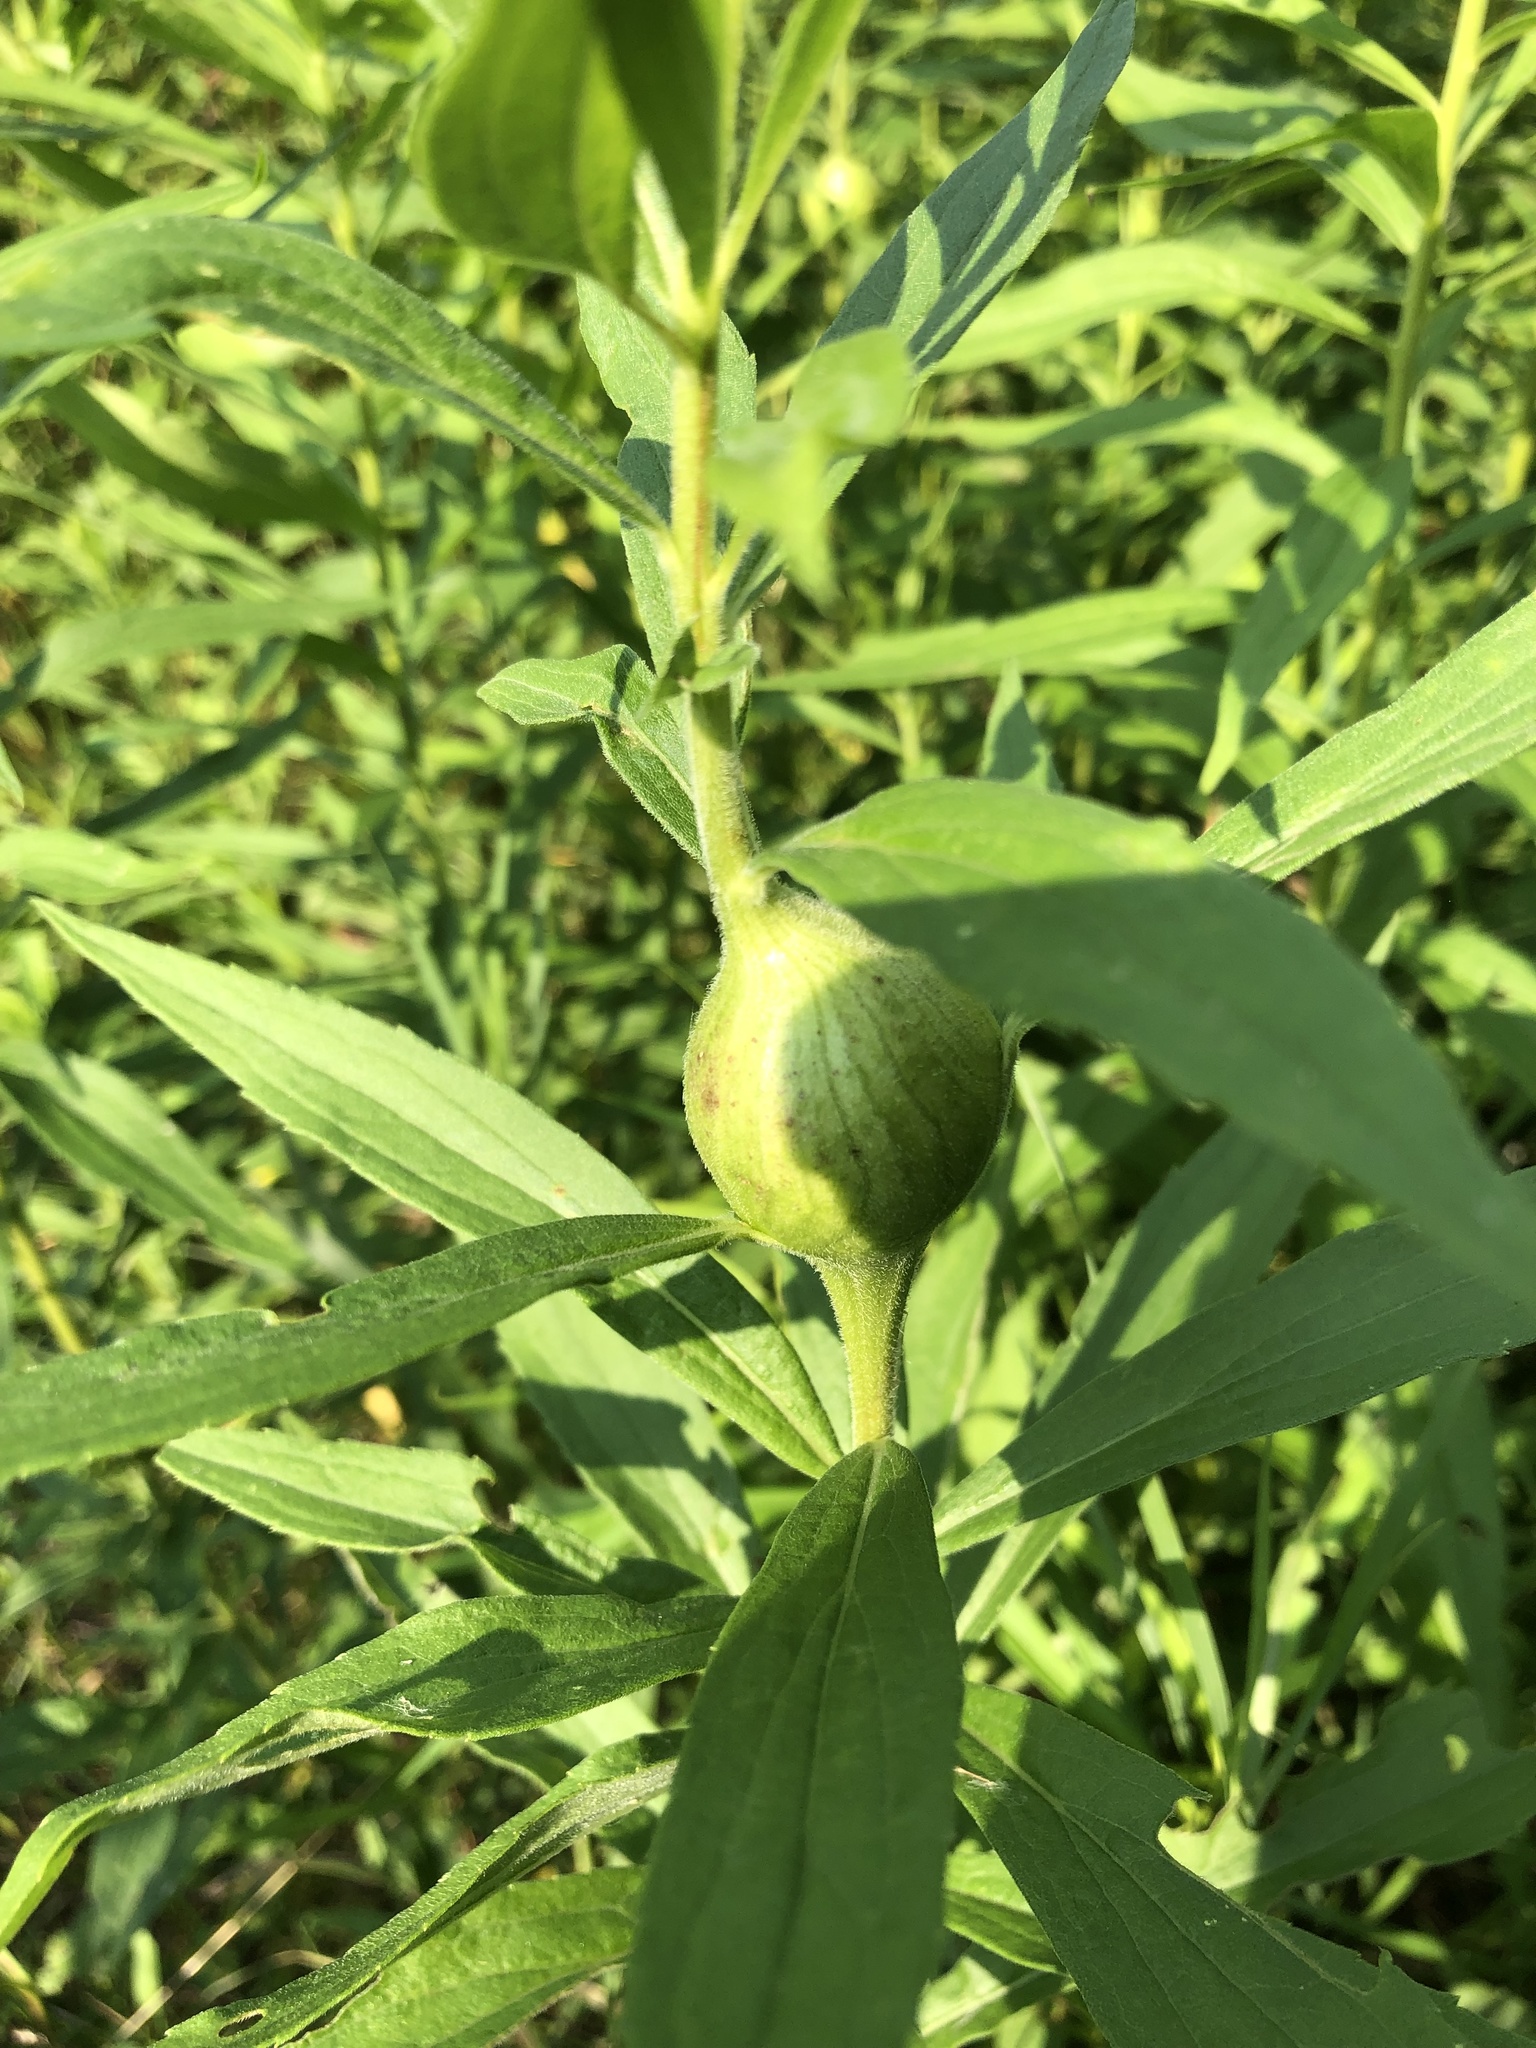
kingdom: Animalia
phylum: Arthropoda
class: Insecta
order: Diptera
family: Tephritidae
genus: Eurosta
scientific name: Eurosta solidaginis
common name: Goldenrod gall fly
